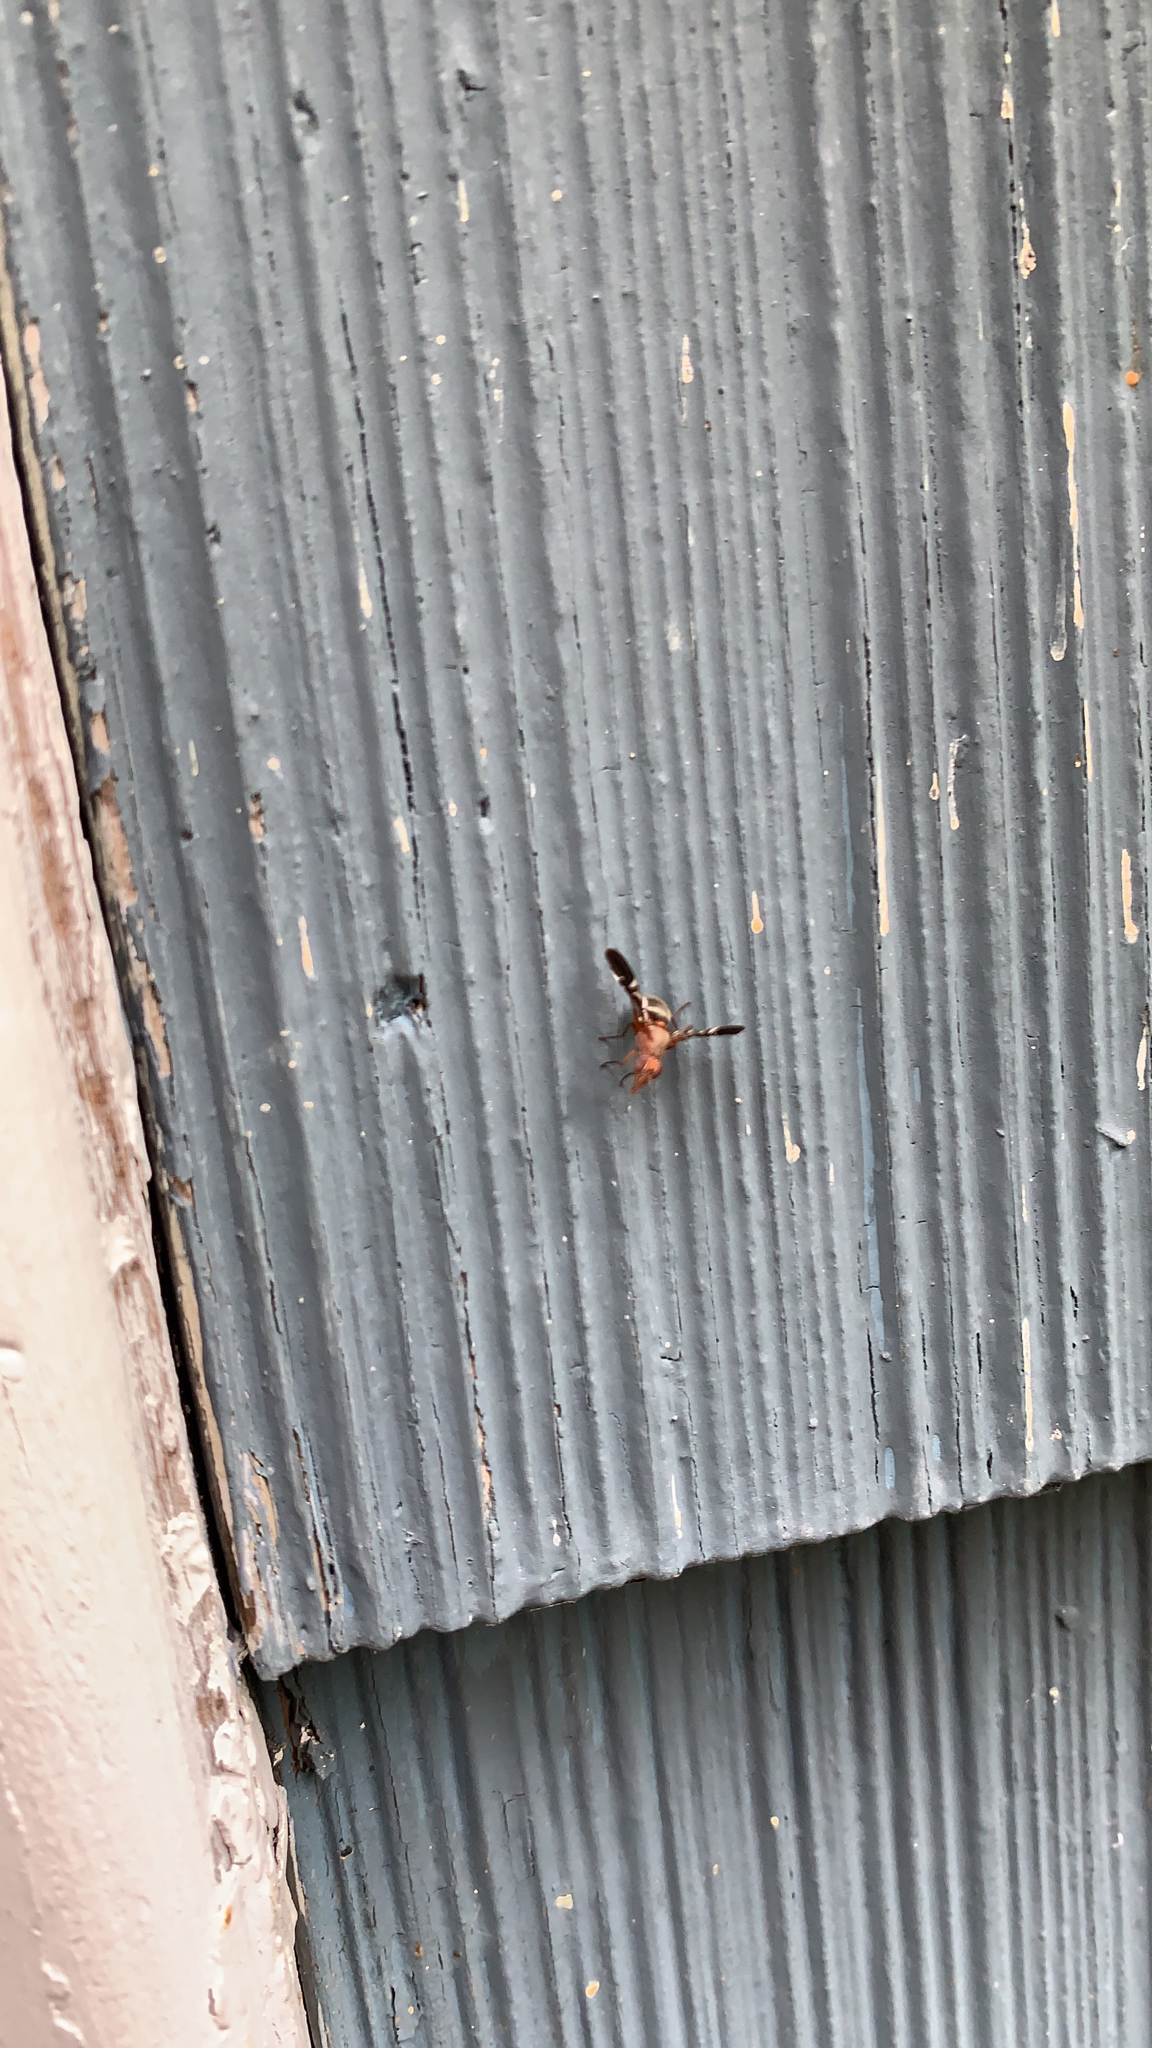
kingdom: Animalia
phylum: Arthropoda
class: Insecta
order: Diptera
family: Ulidiidae
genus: Delphinia
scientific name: Delphinia picta
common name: Common picture-winged fly
